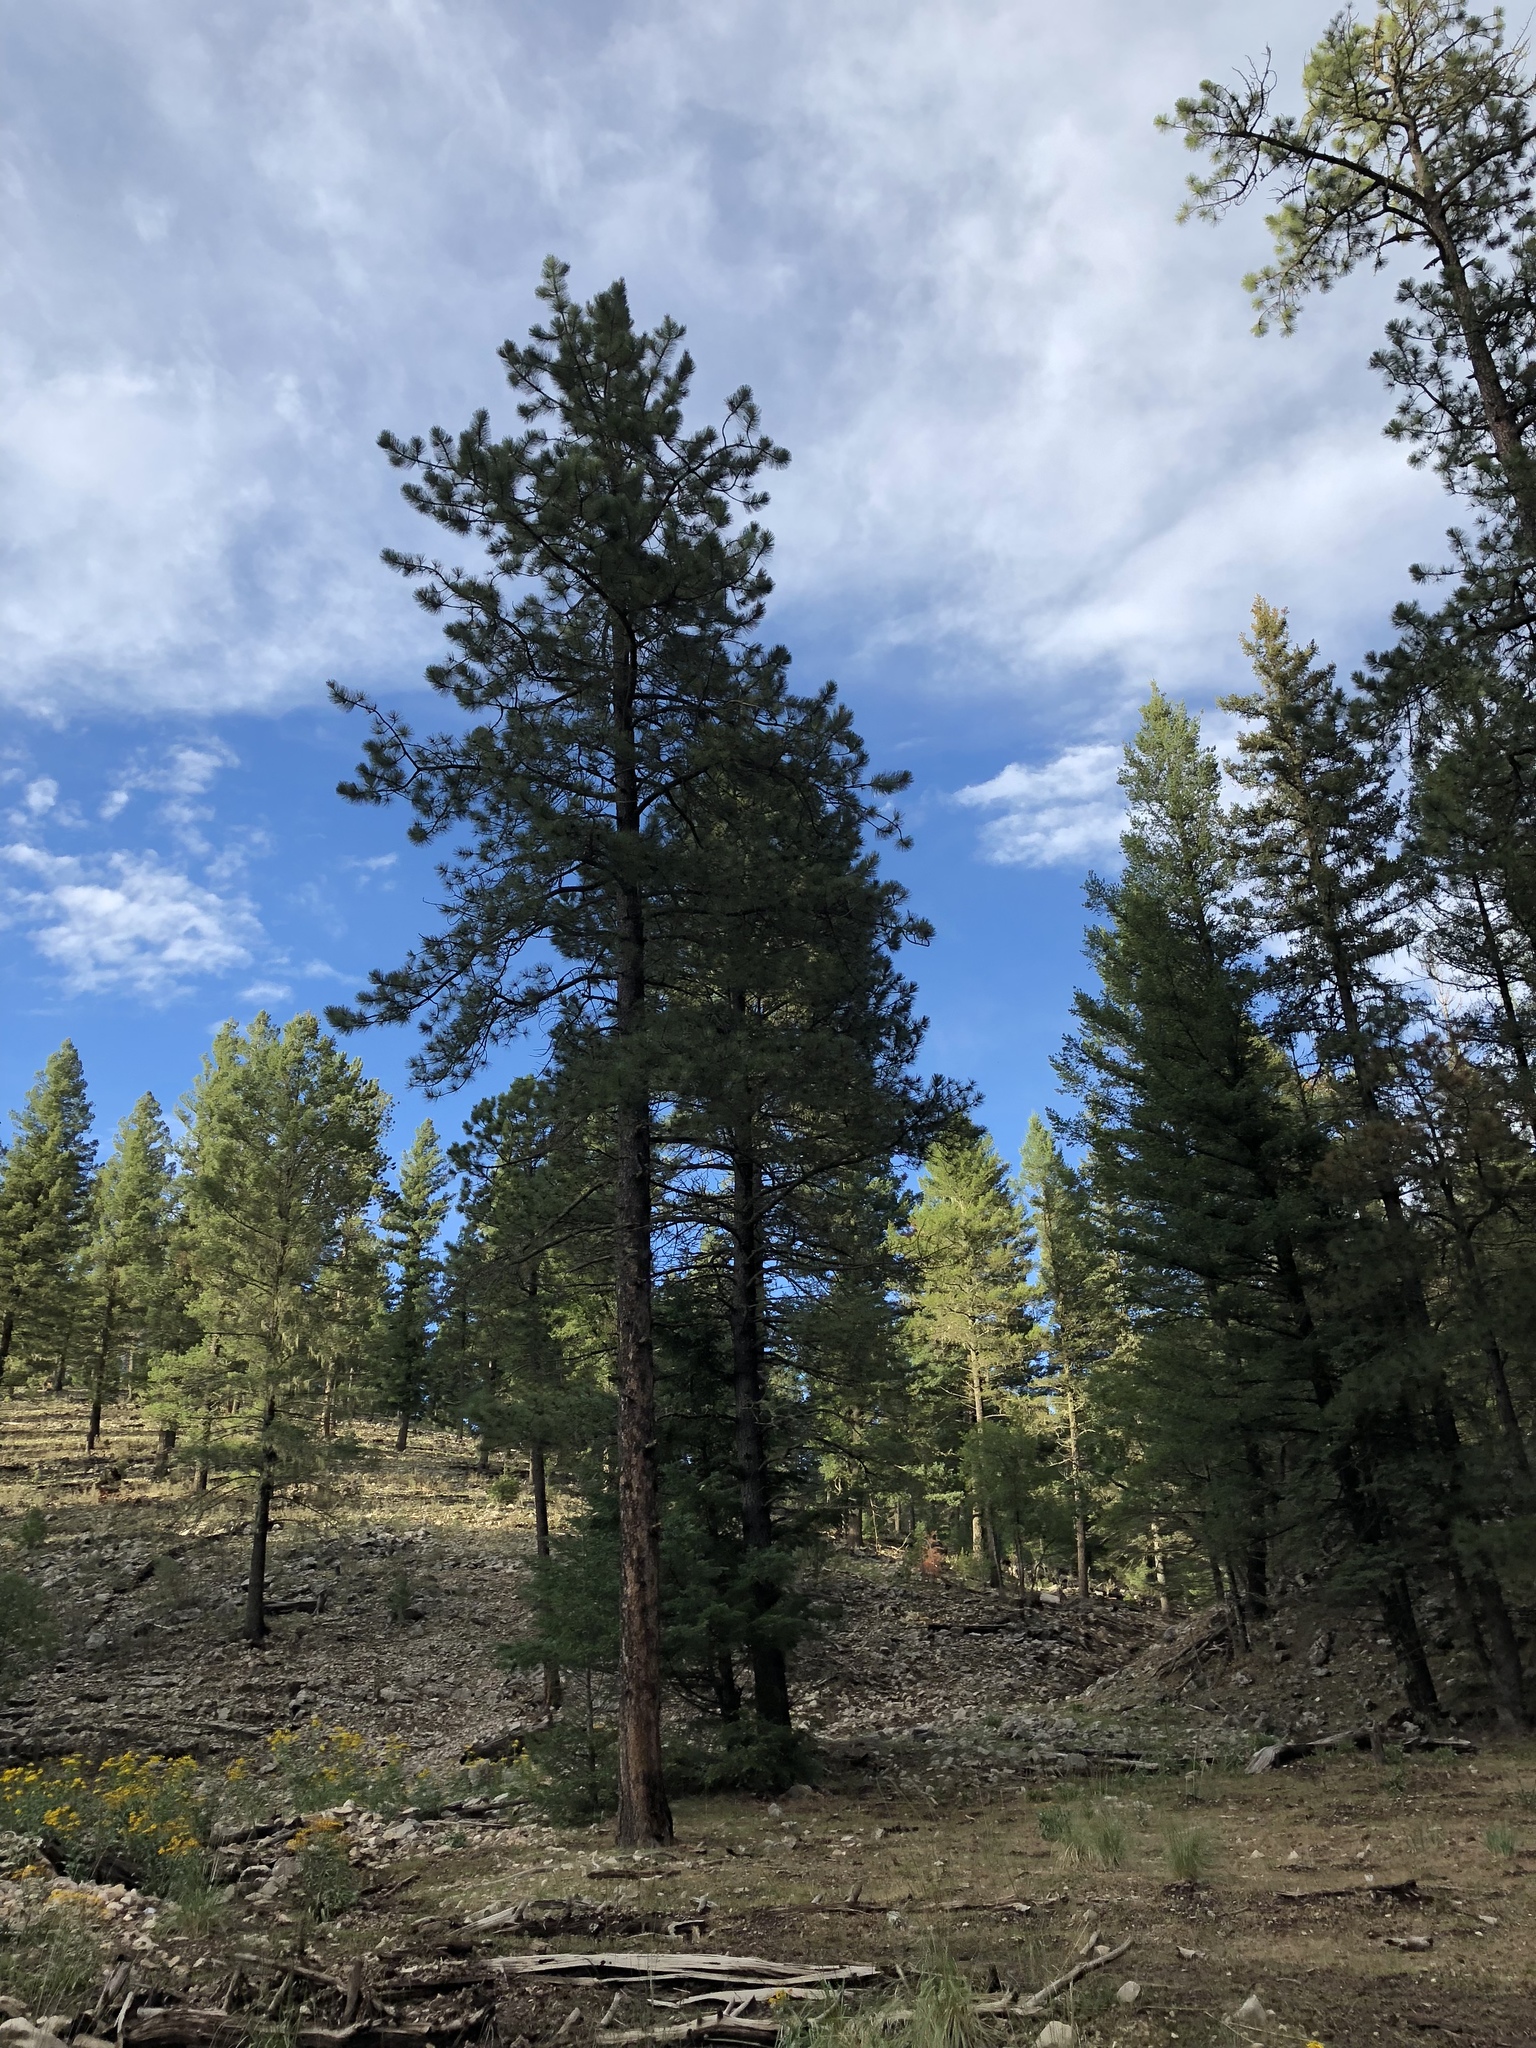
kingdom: Plantae
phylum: Tracheophyta
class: Pinopsida
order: Pinales
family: Pinaceae
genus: Pinus
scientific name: Pinus ponderosa
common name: Western yellow-pine
